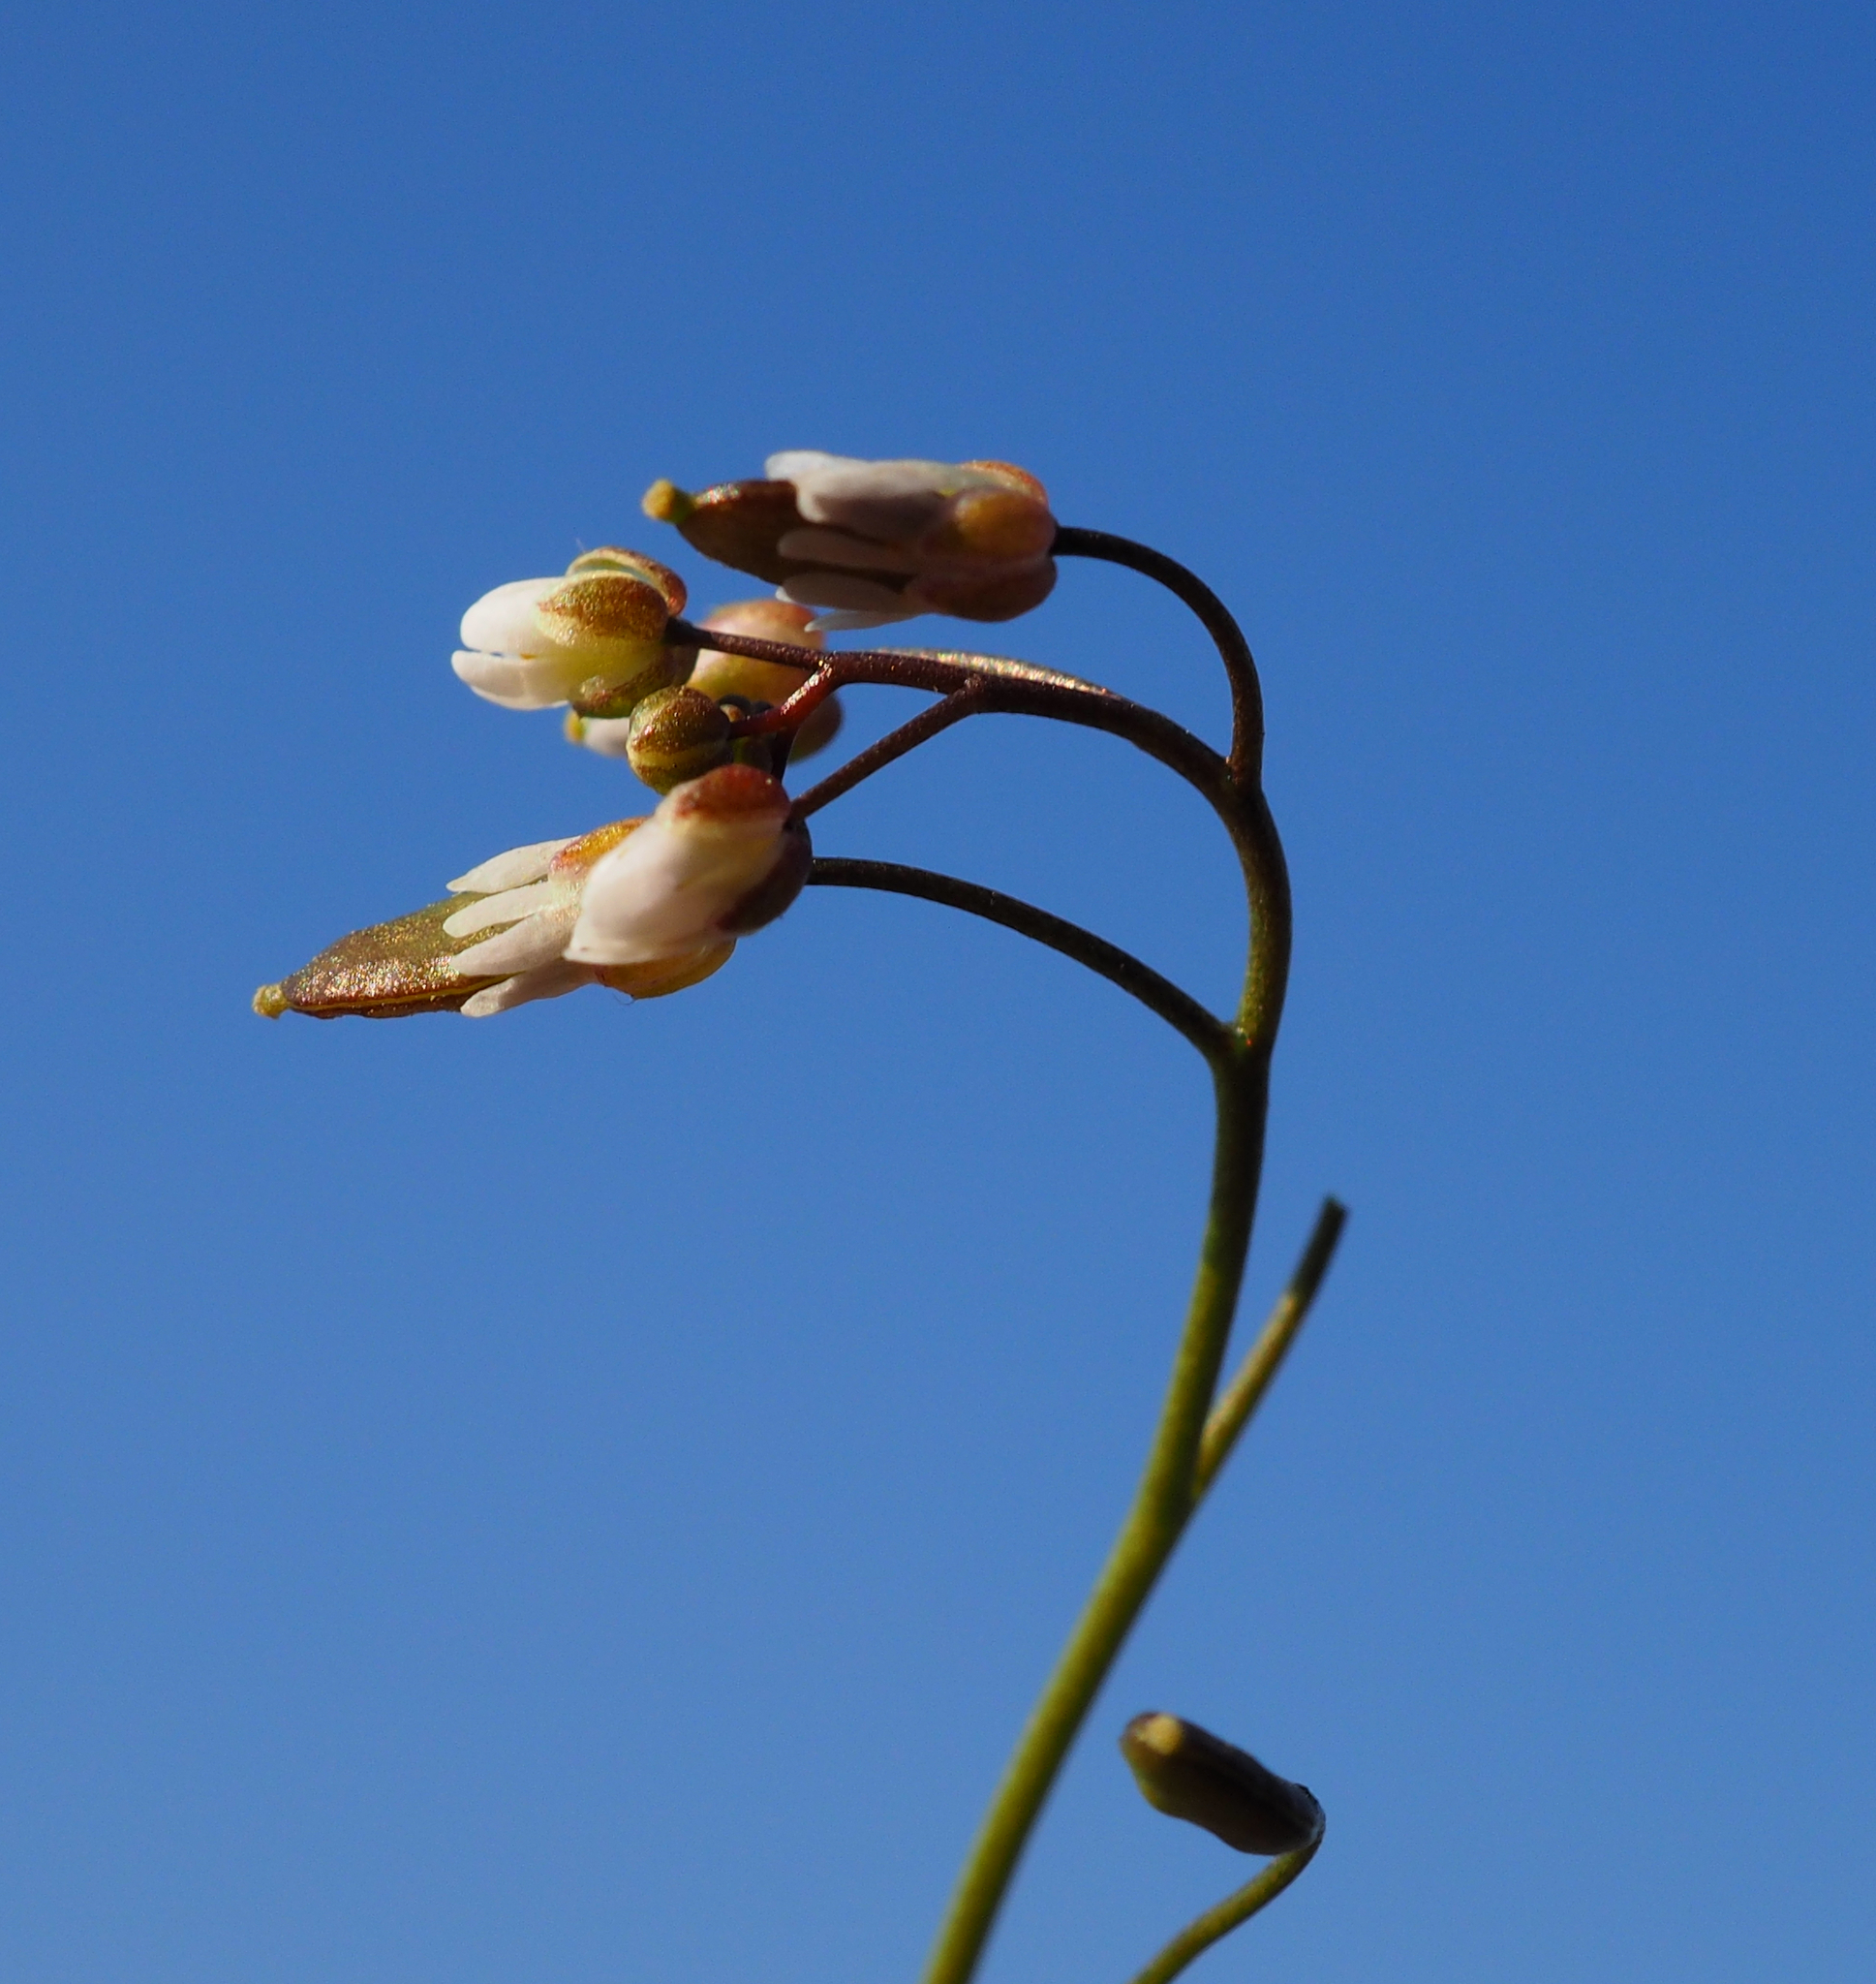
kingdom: Plantae
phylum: Tracheophyta
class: Magnoliopsida
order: Brassicales
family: Brassicaceae
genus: Draba
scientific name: Draba verna
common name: Spring draba
